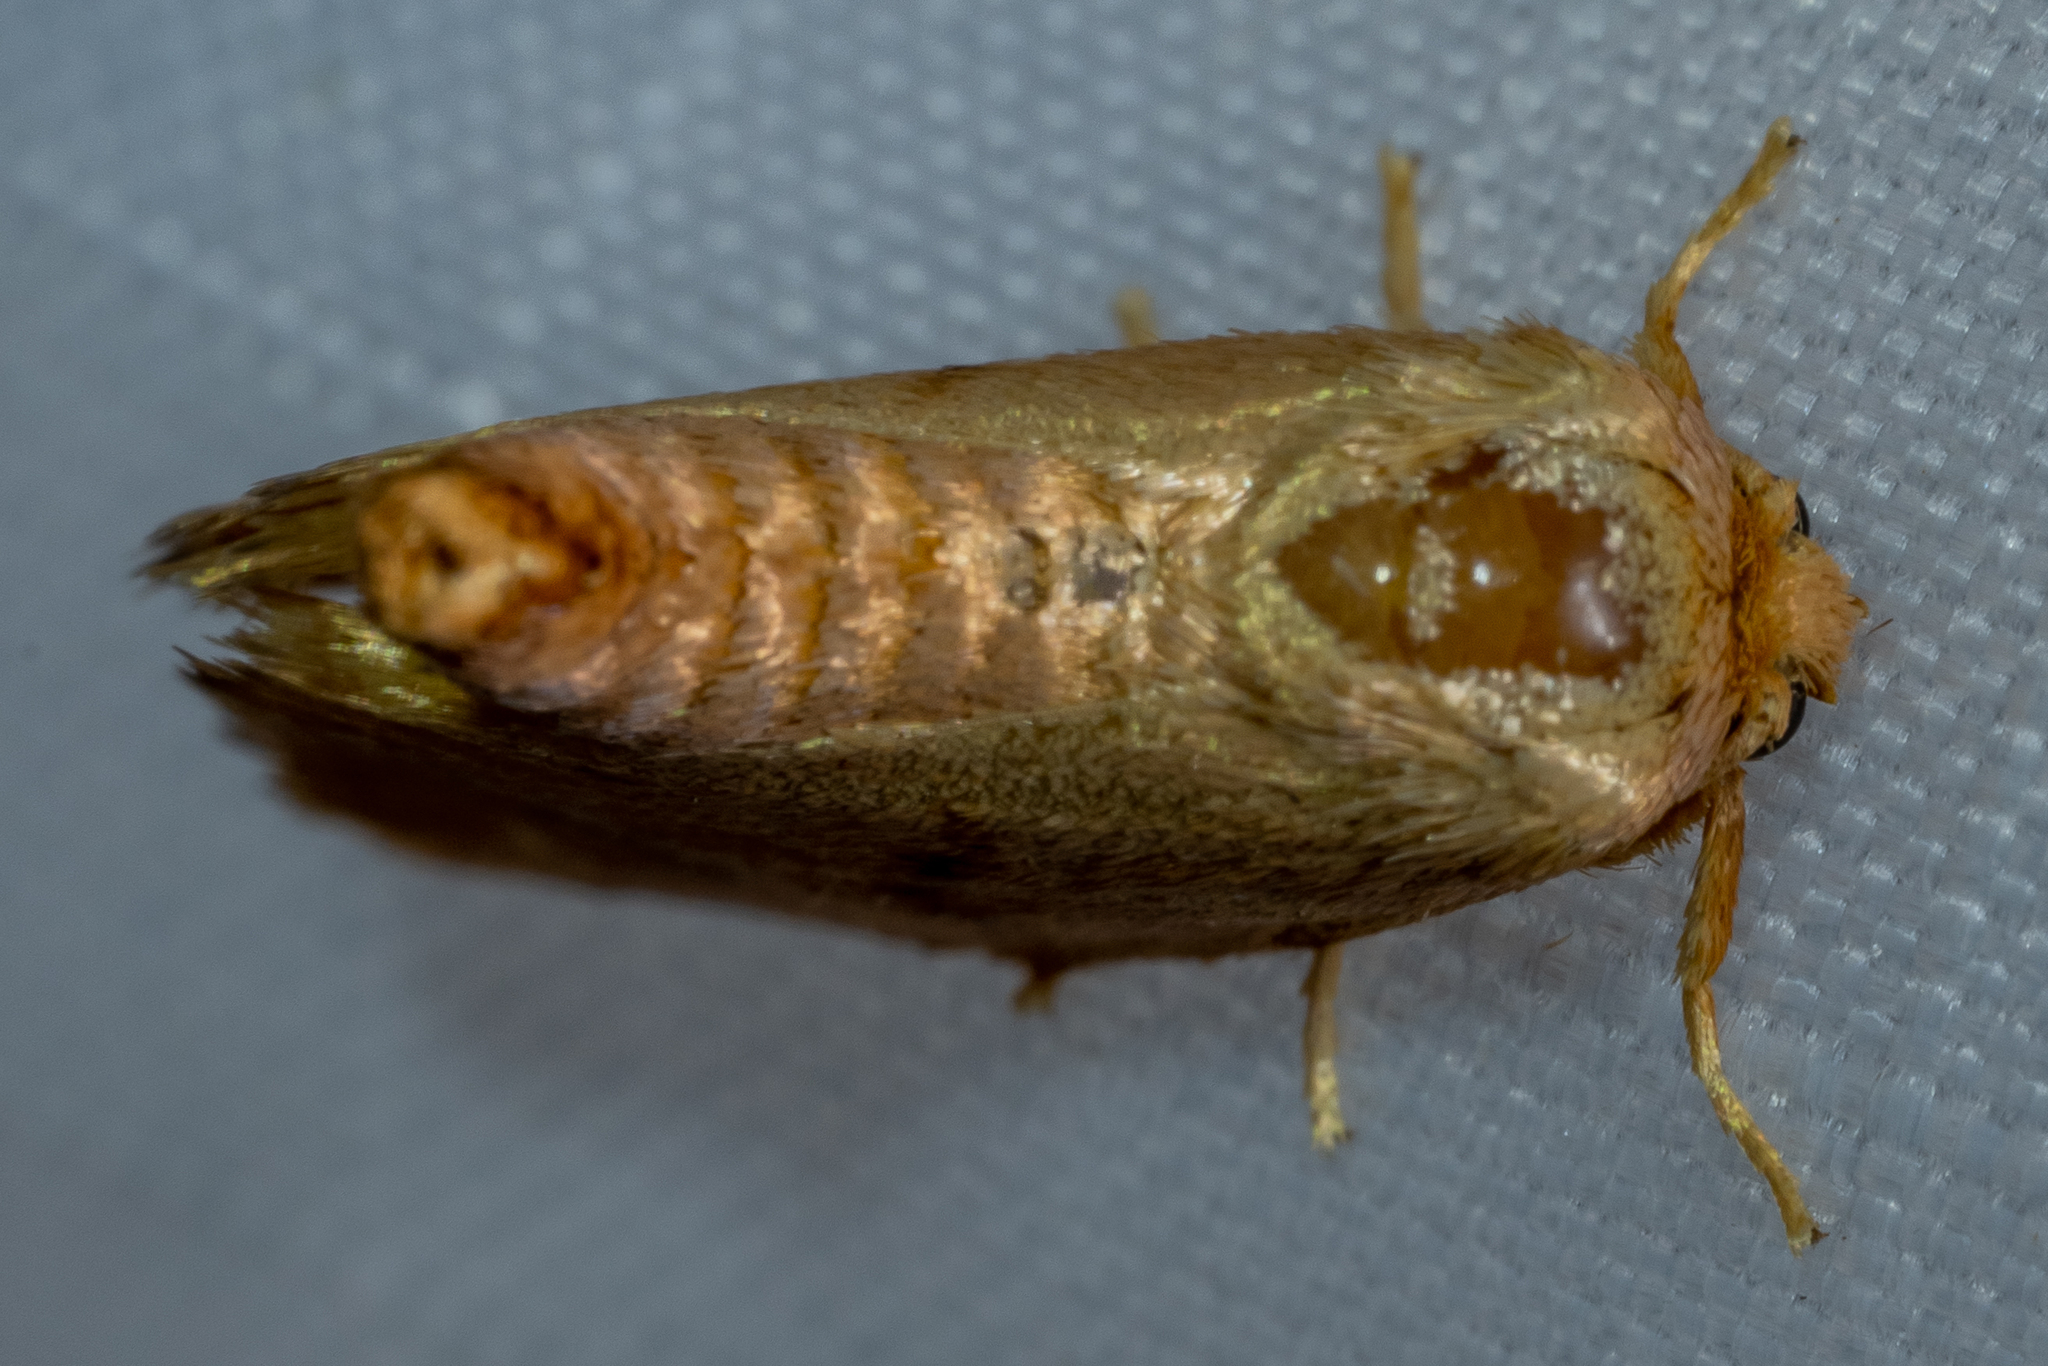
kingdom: Animalia
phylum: Arthropoda
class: Insecta
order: Lepidoptera
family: Limacodidae
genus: Tortricidia
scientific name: Tortricidia flexuosa
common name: Abbreviated button slug moth
